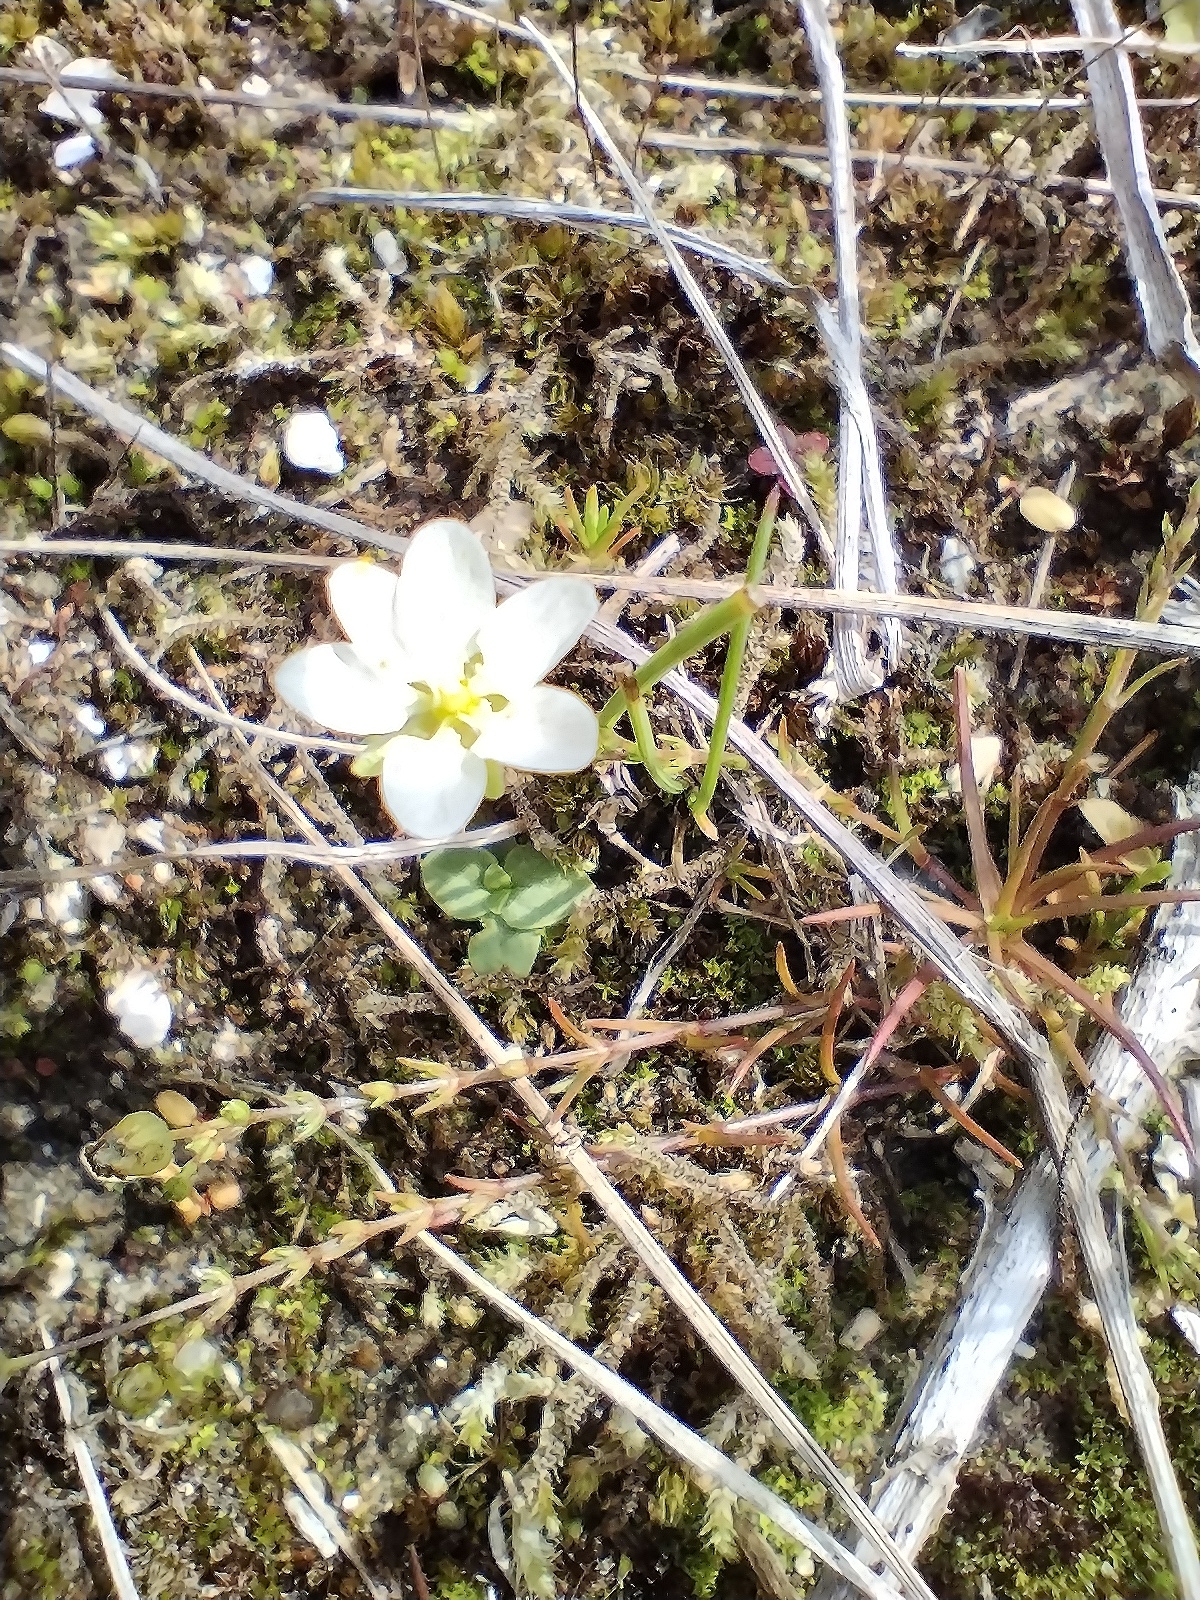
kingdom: Plantae
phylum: Tracheophyta
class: Magnoliopsida
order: Caryophyllales
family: Caryophyllaceae
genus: Sagina
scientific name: Sagina nodosa
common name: Knotted pearlwort
